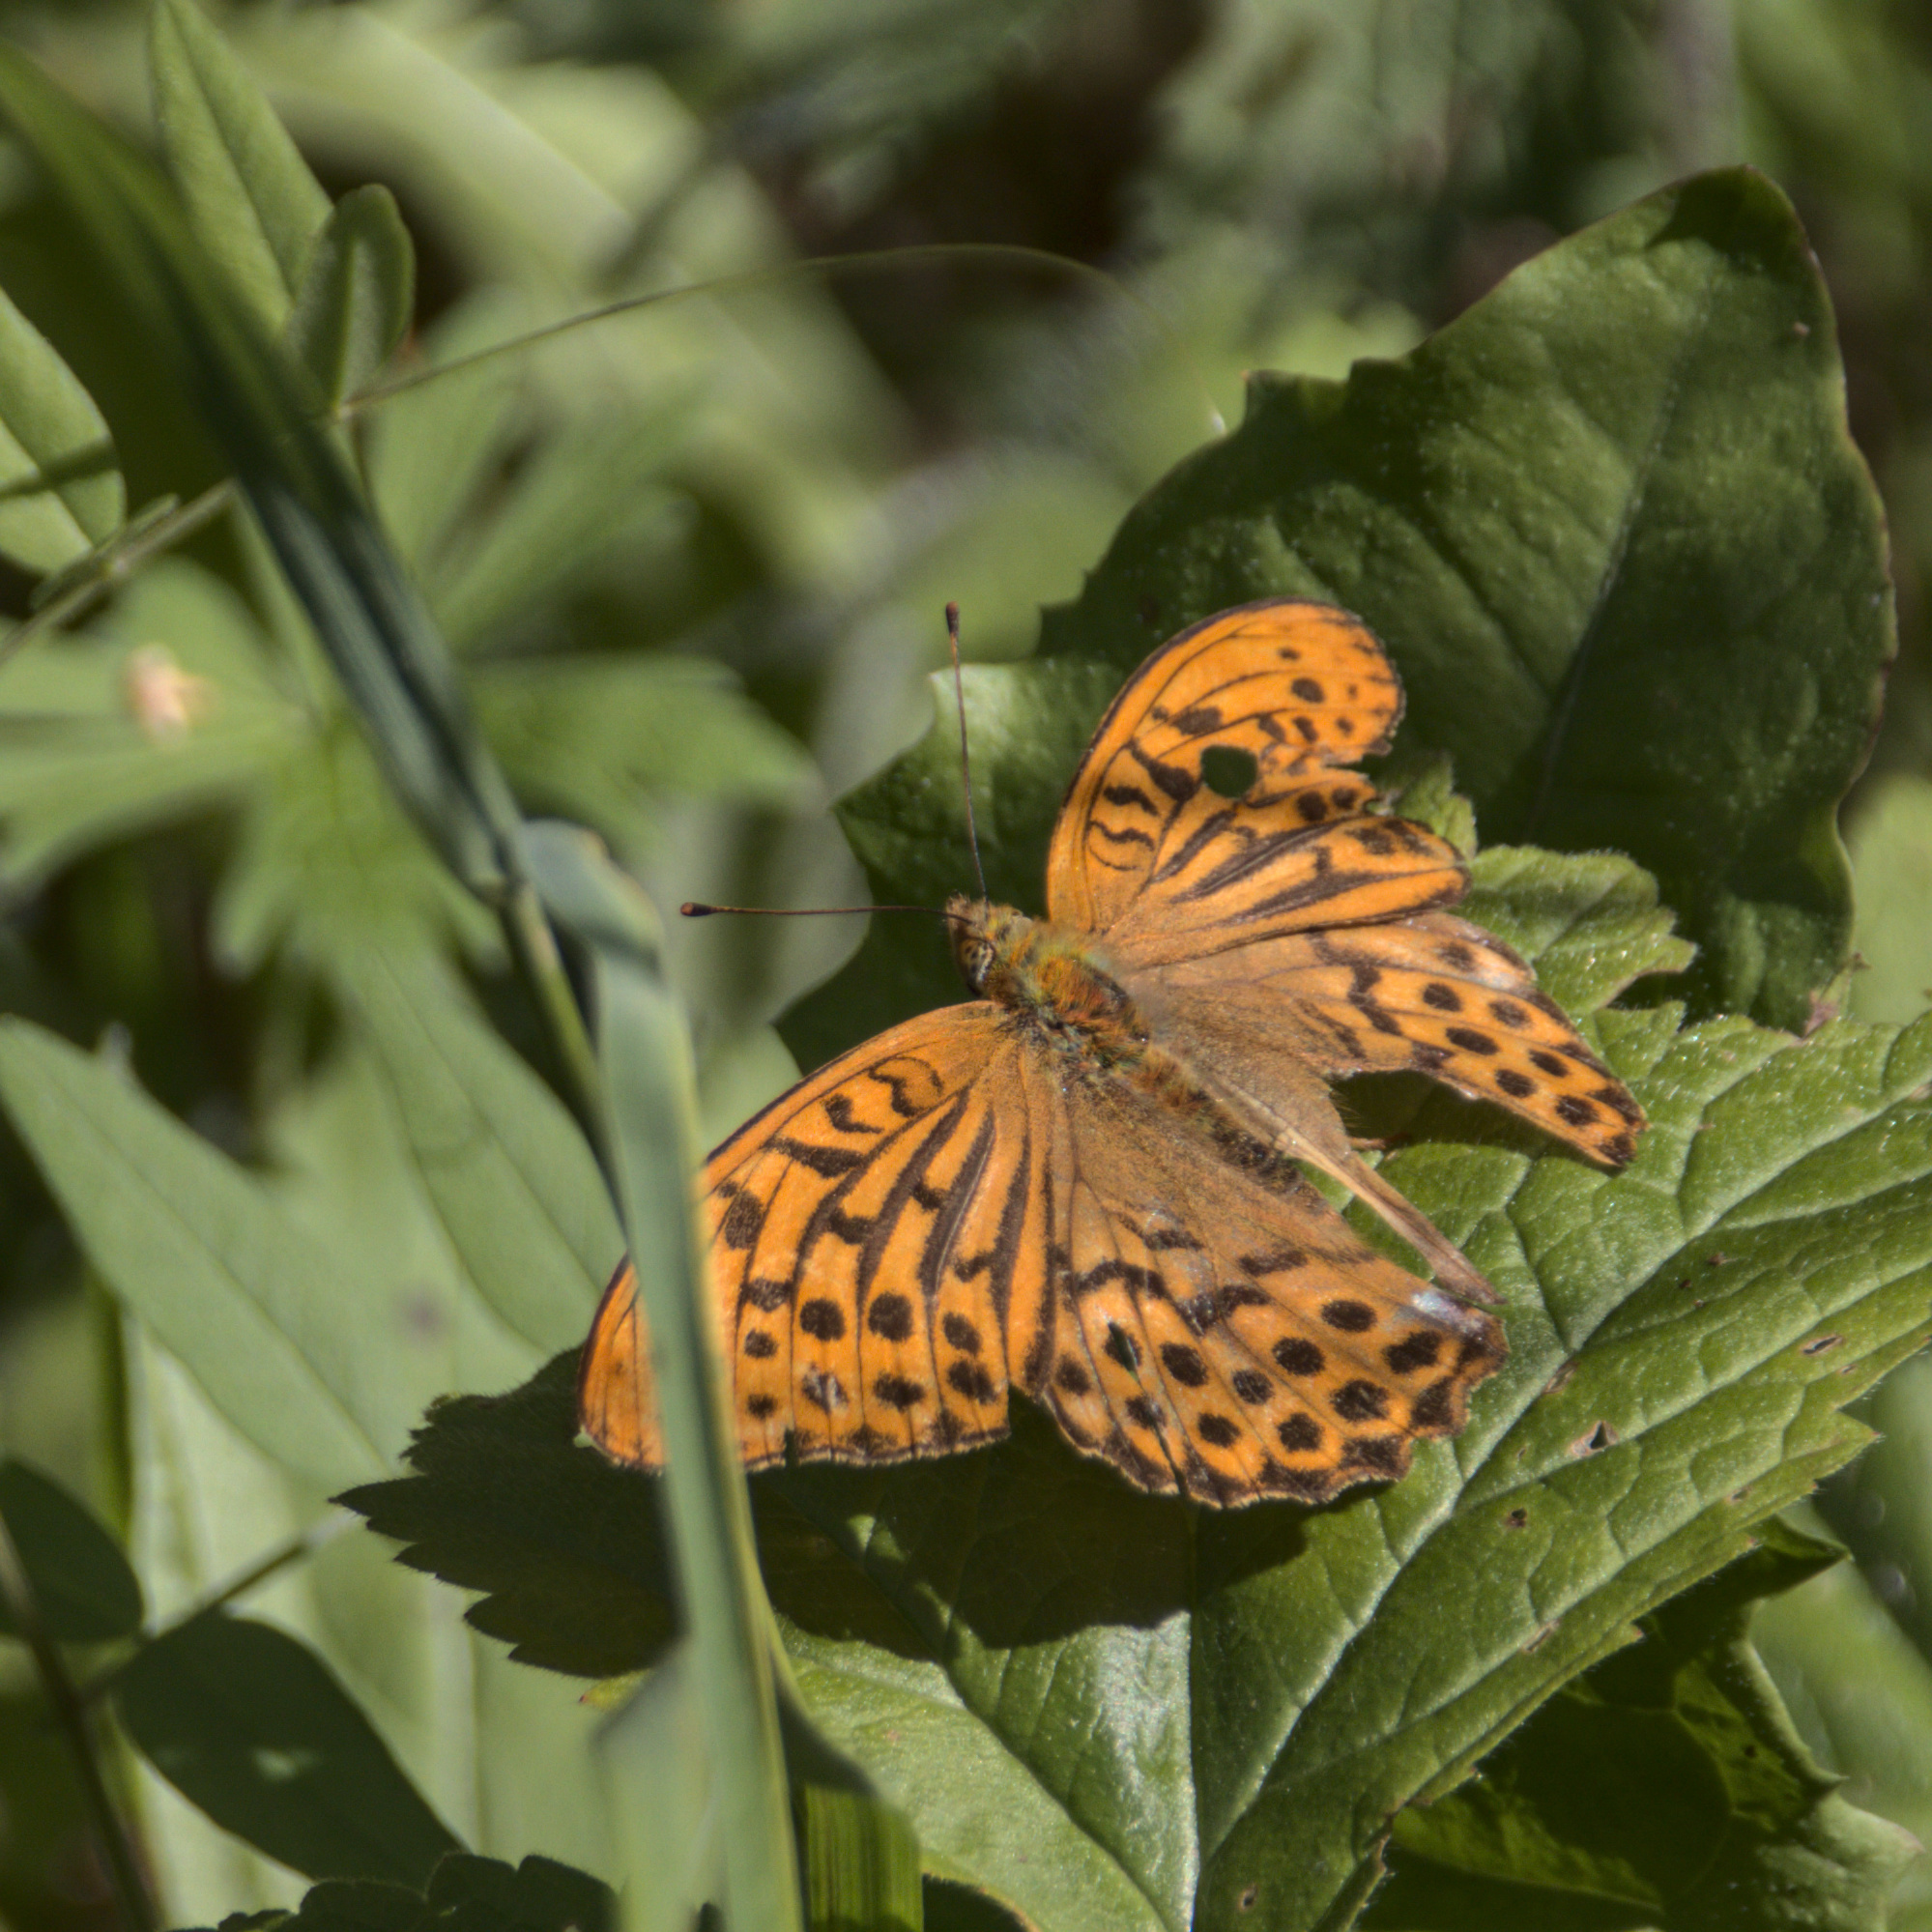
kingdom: Animalia
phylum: Arthropoda
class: Insecta
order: Lepidoptera
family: Nymphalidae
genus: Argynnis
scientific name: Argynnis paphia
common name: Silver-washed fritillary
